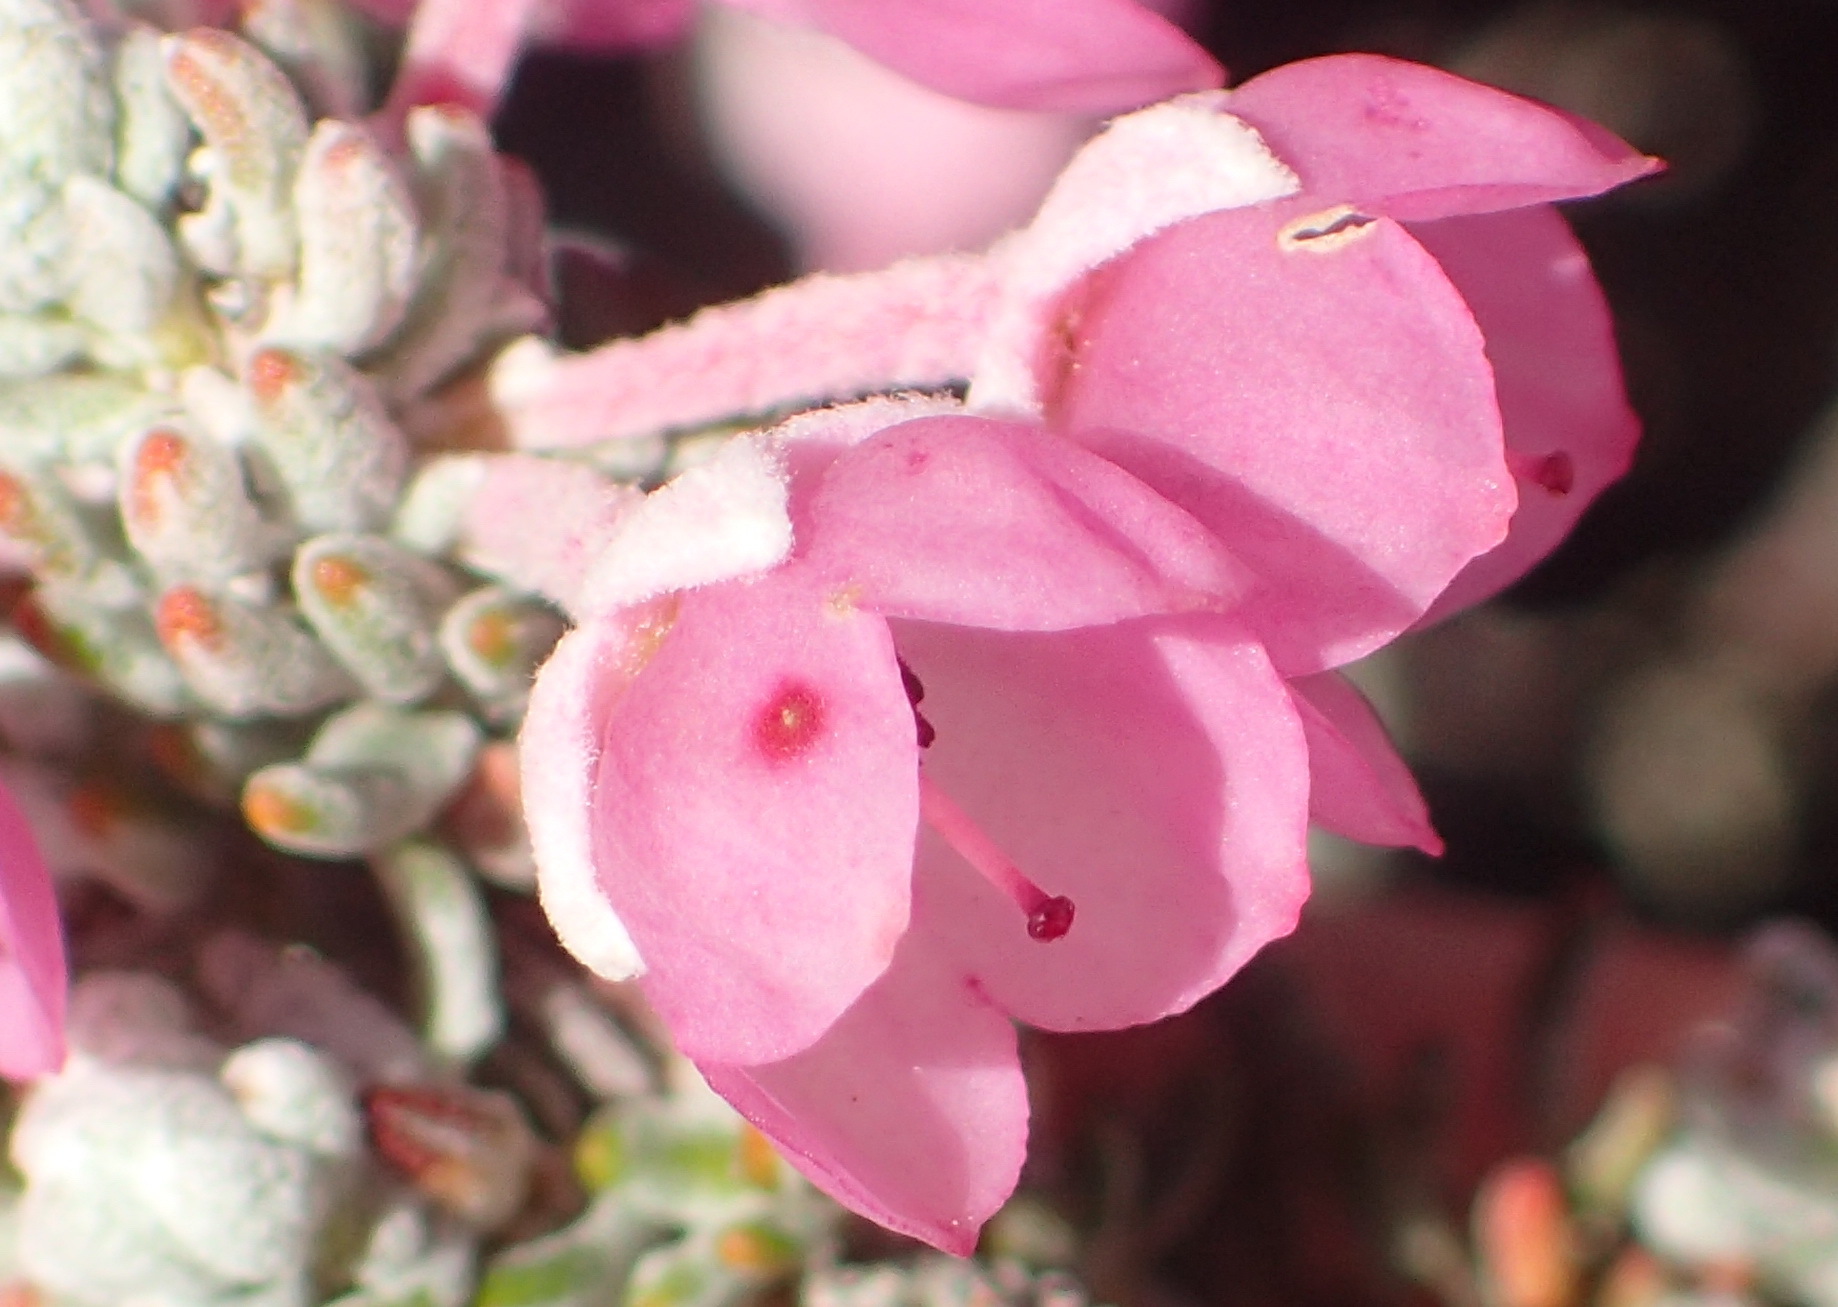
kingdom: Plantae
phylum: Tracheophyta
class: Magnoliopsida
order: Ericales
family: Ericaceae
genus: Erica
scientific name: Erica passerina
